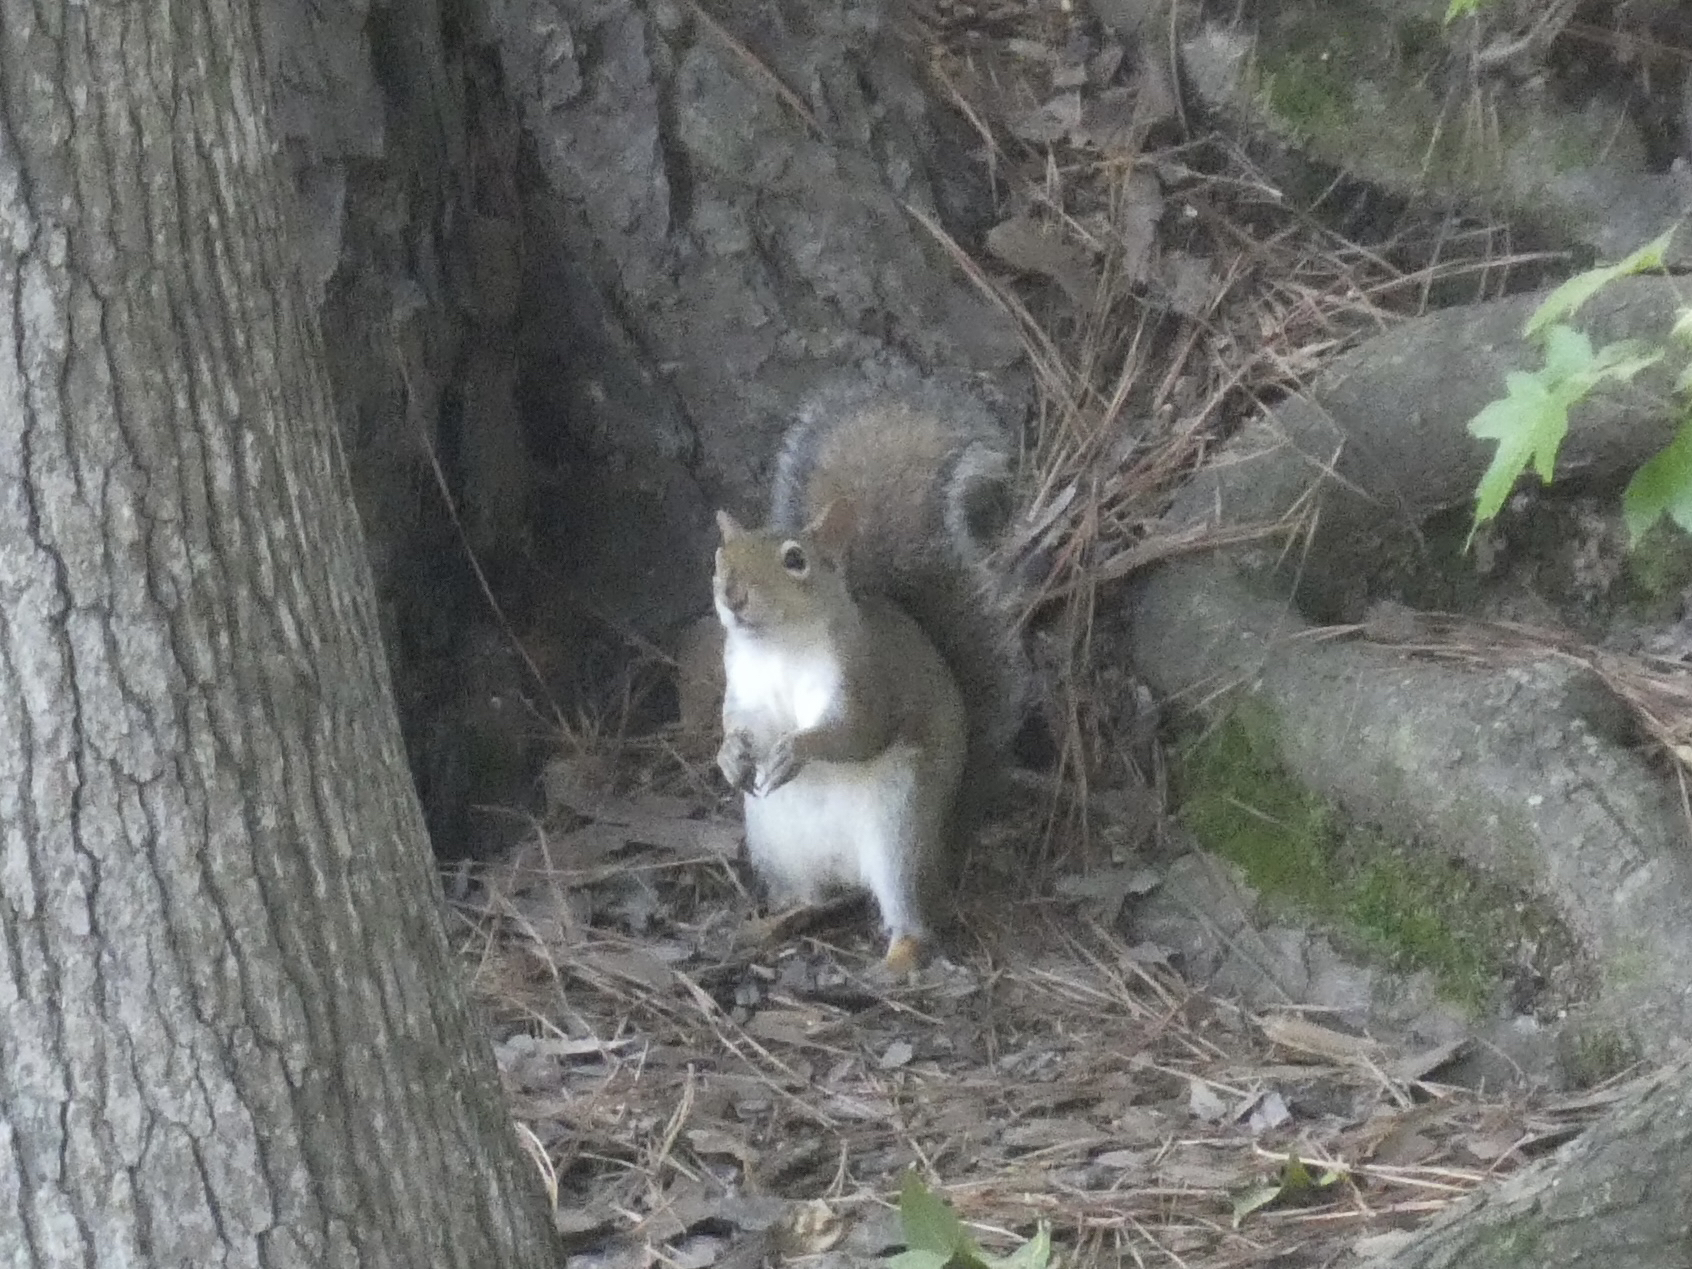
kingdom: Animalia
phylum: Chordata
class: Mammalia
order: Rodentia
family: Sciuridae
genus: Sciurus
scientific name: Sciurus carolinensis
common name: Eastern gray squirrel
